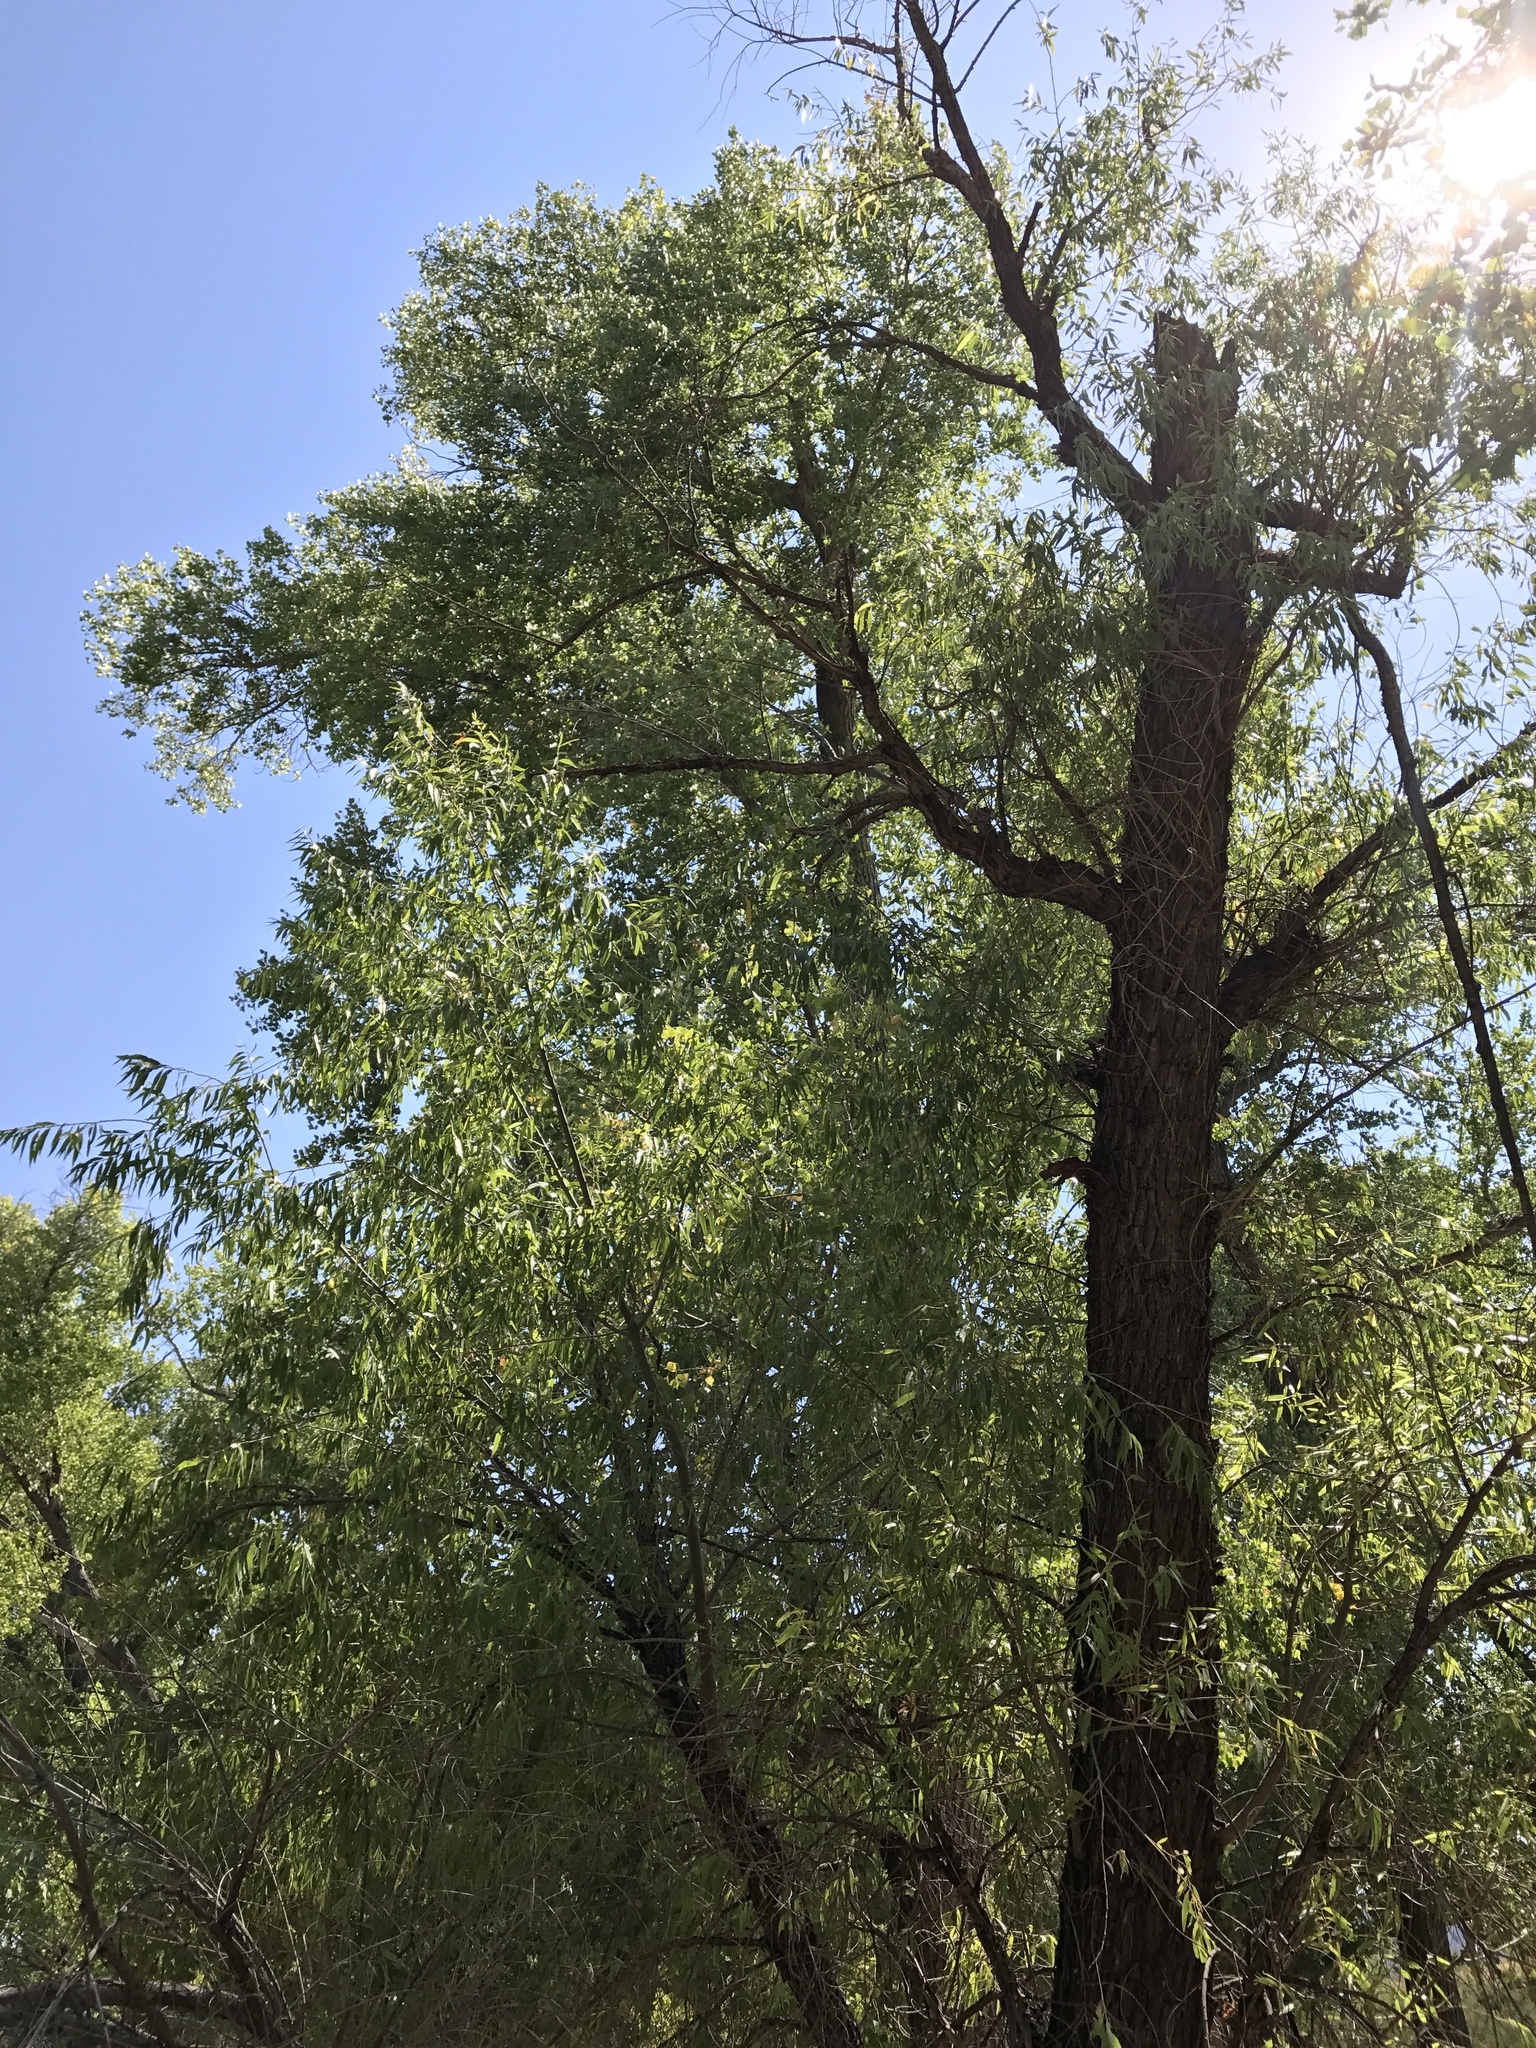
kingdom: Plantae
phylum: Tracheophyta
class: Magnoliopsida
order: Malpighiales
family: Salicaceae
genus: Salix
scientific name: Salix gooddingii
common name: Goodding's willow
